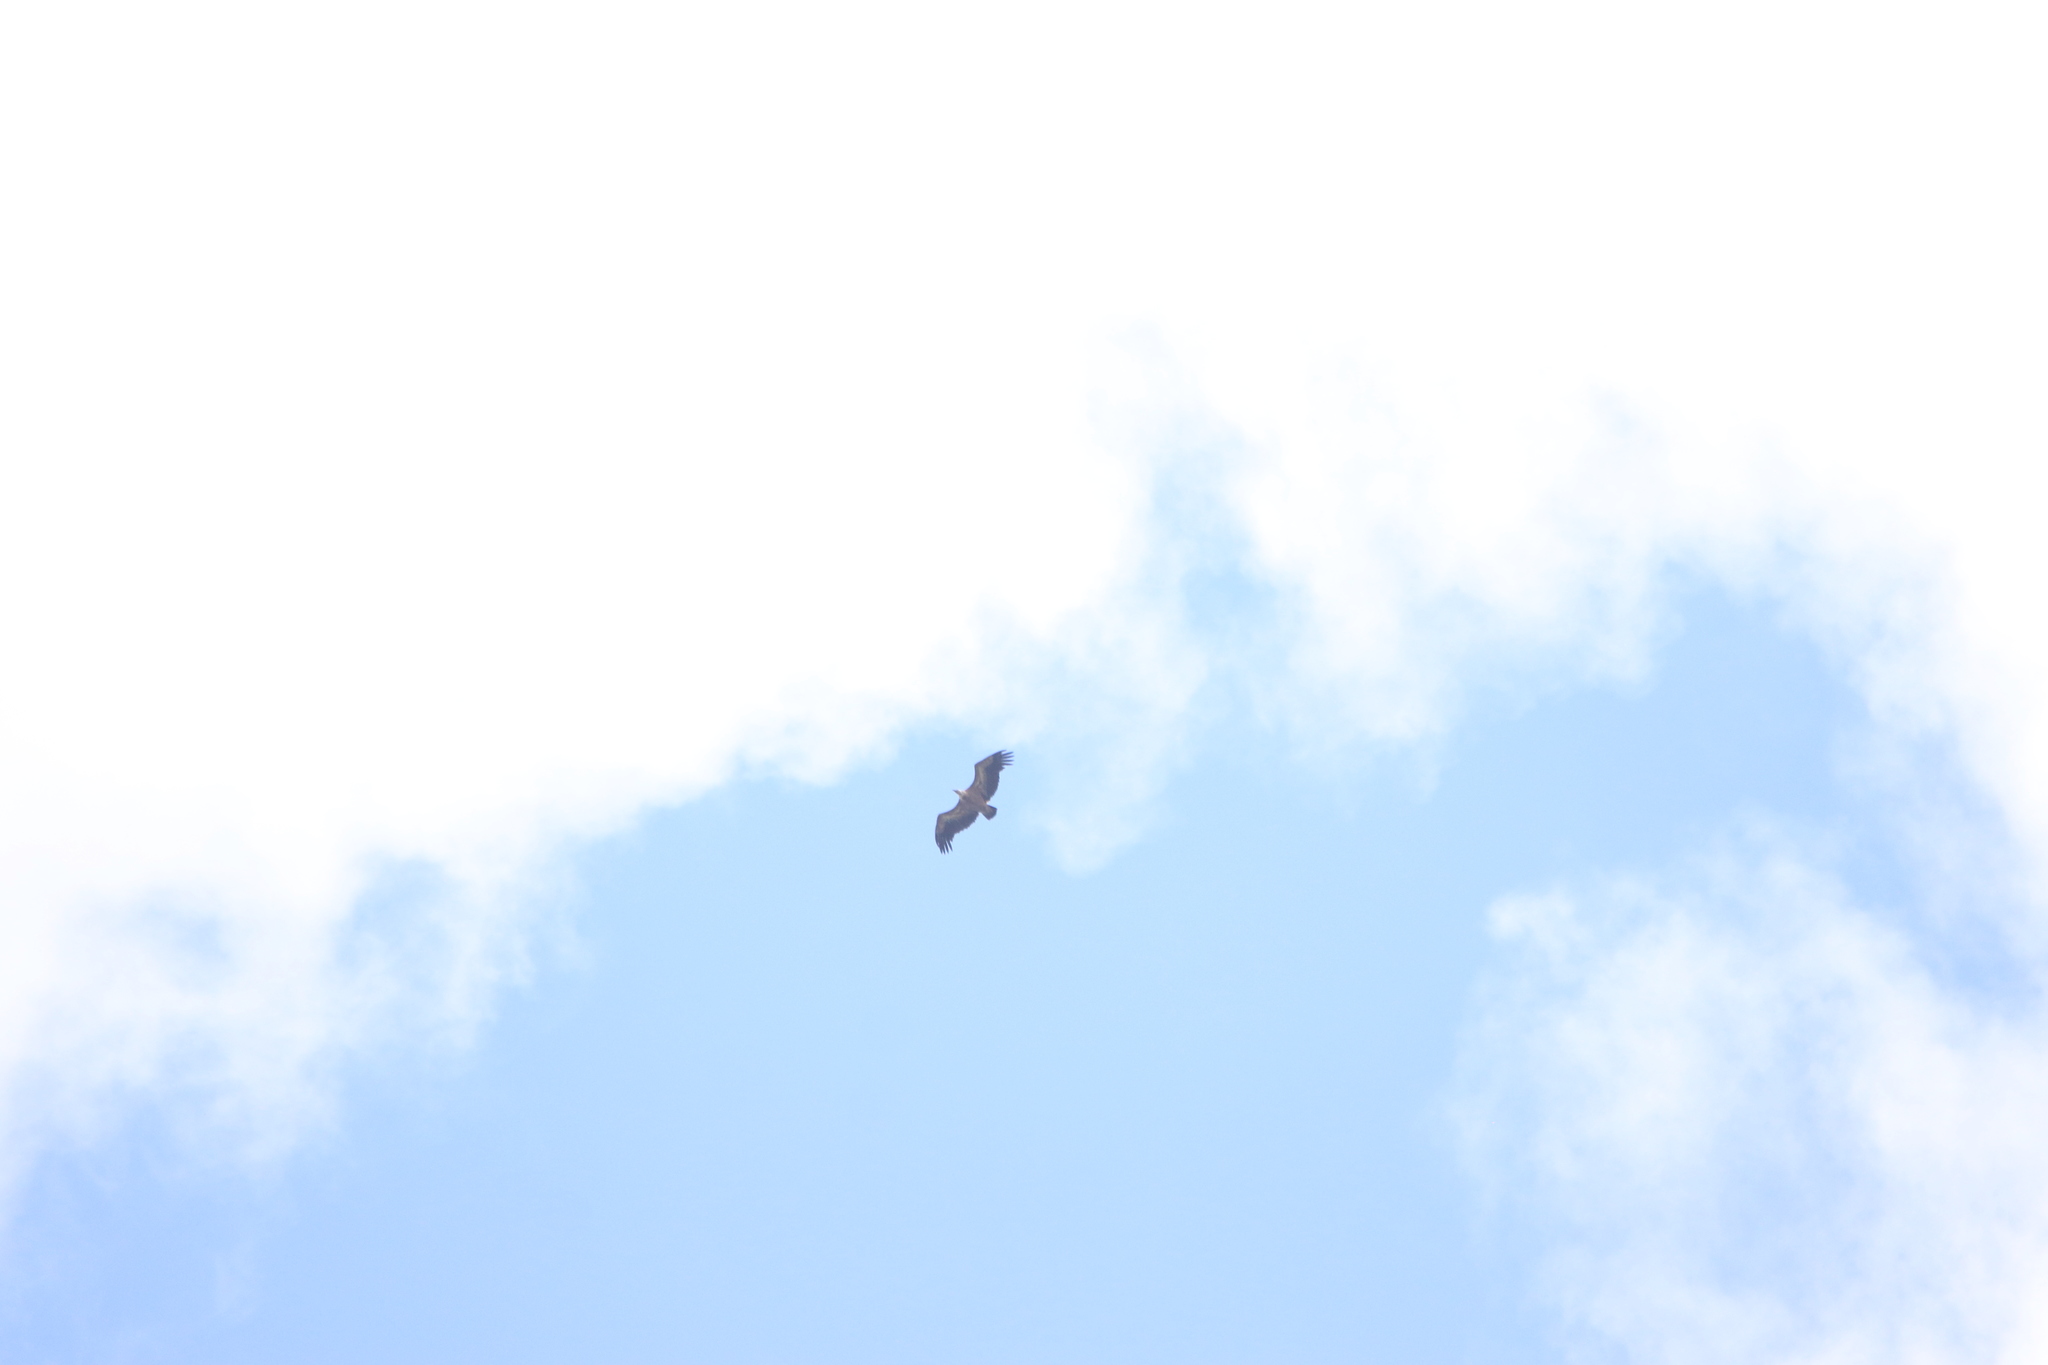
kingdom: Animalia
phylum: Chordata
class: Aves
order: Accipitriformes
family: Accipitridae
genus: Gyps
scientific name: Gyps fulvus
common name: Griffon vulture
